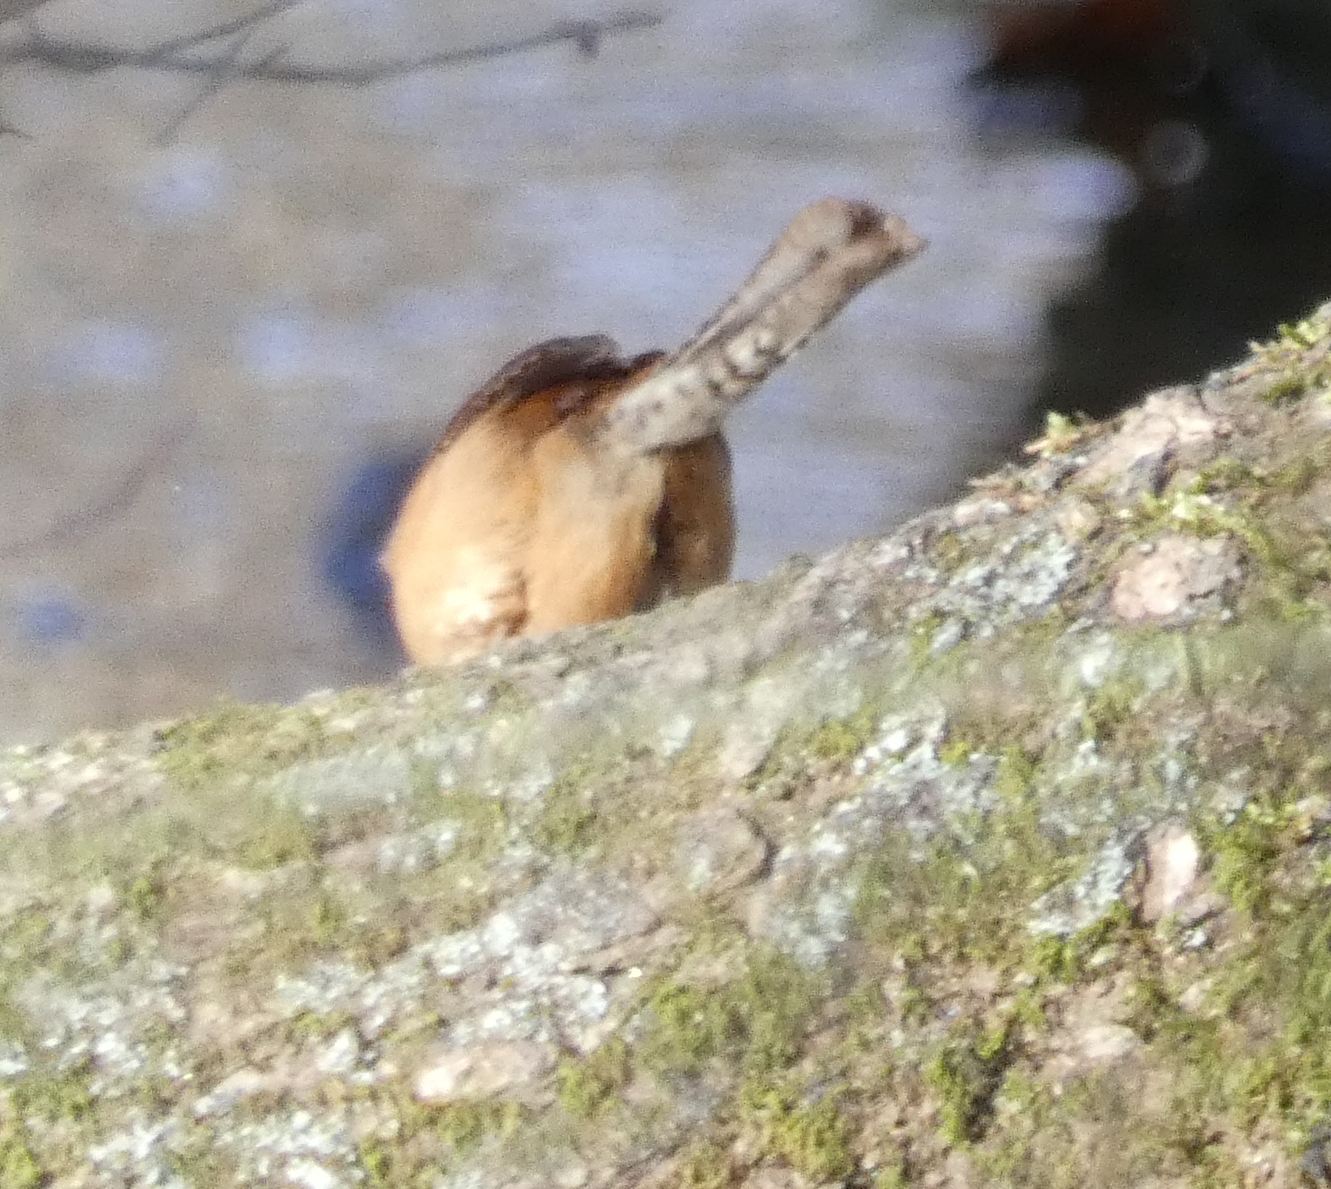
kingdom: Animalia
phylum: Chordata
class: Aves
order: Passeriformes
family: Troglodytidae
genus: Thryothorus
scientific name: Thryothorus ludovicianus
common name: Carolina wren
